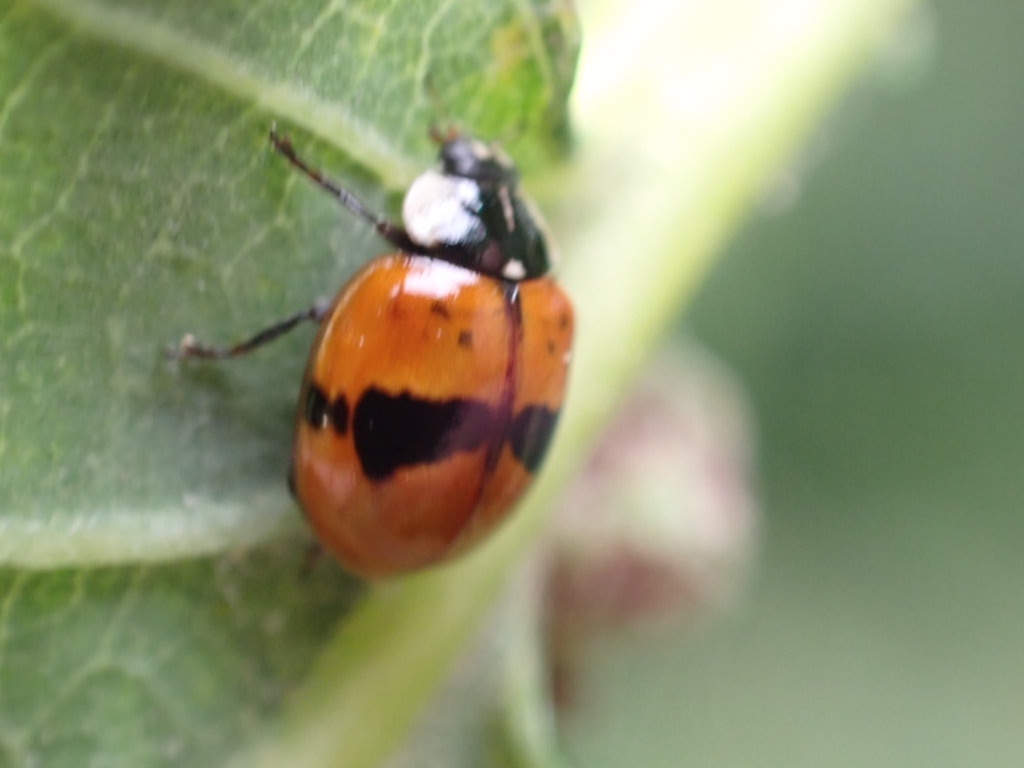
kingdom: Animalia
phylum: Arthropoda
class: Insecta
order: Coleoptera
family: Coccinellidae
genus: Adalia
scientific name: Adalia bipunctata
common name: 2-spot ladybird
